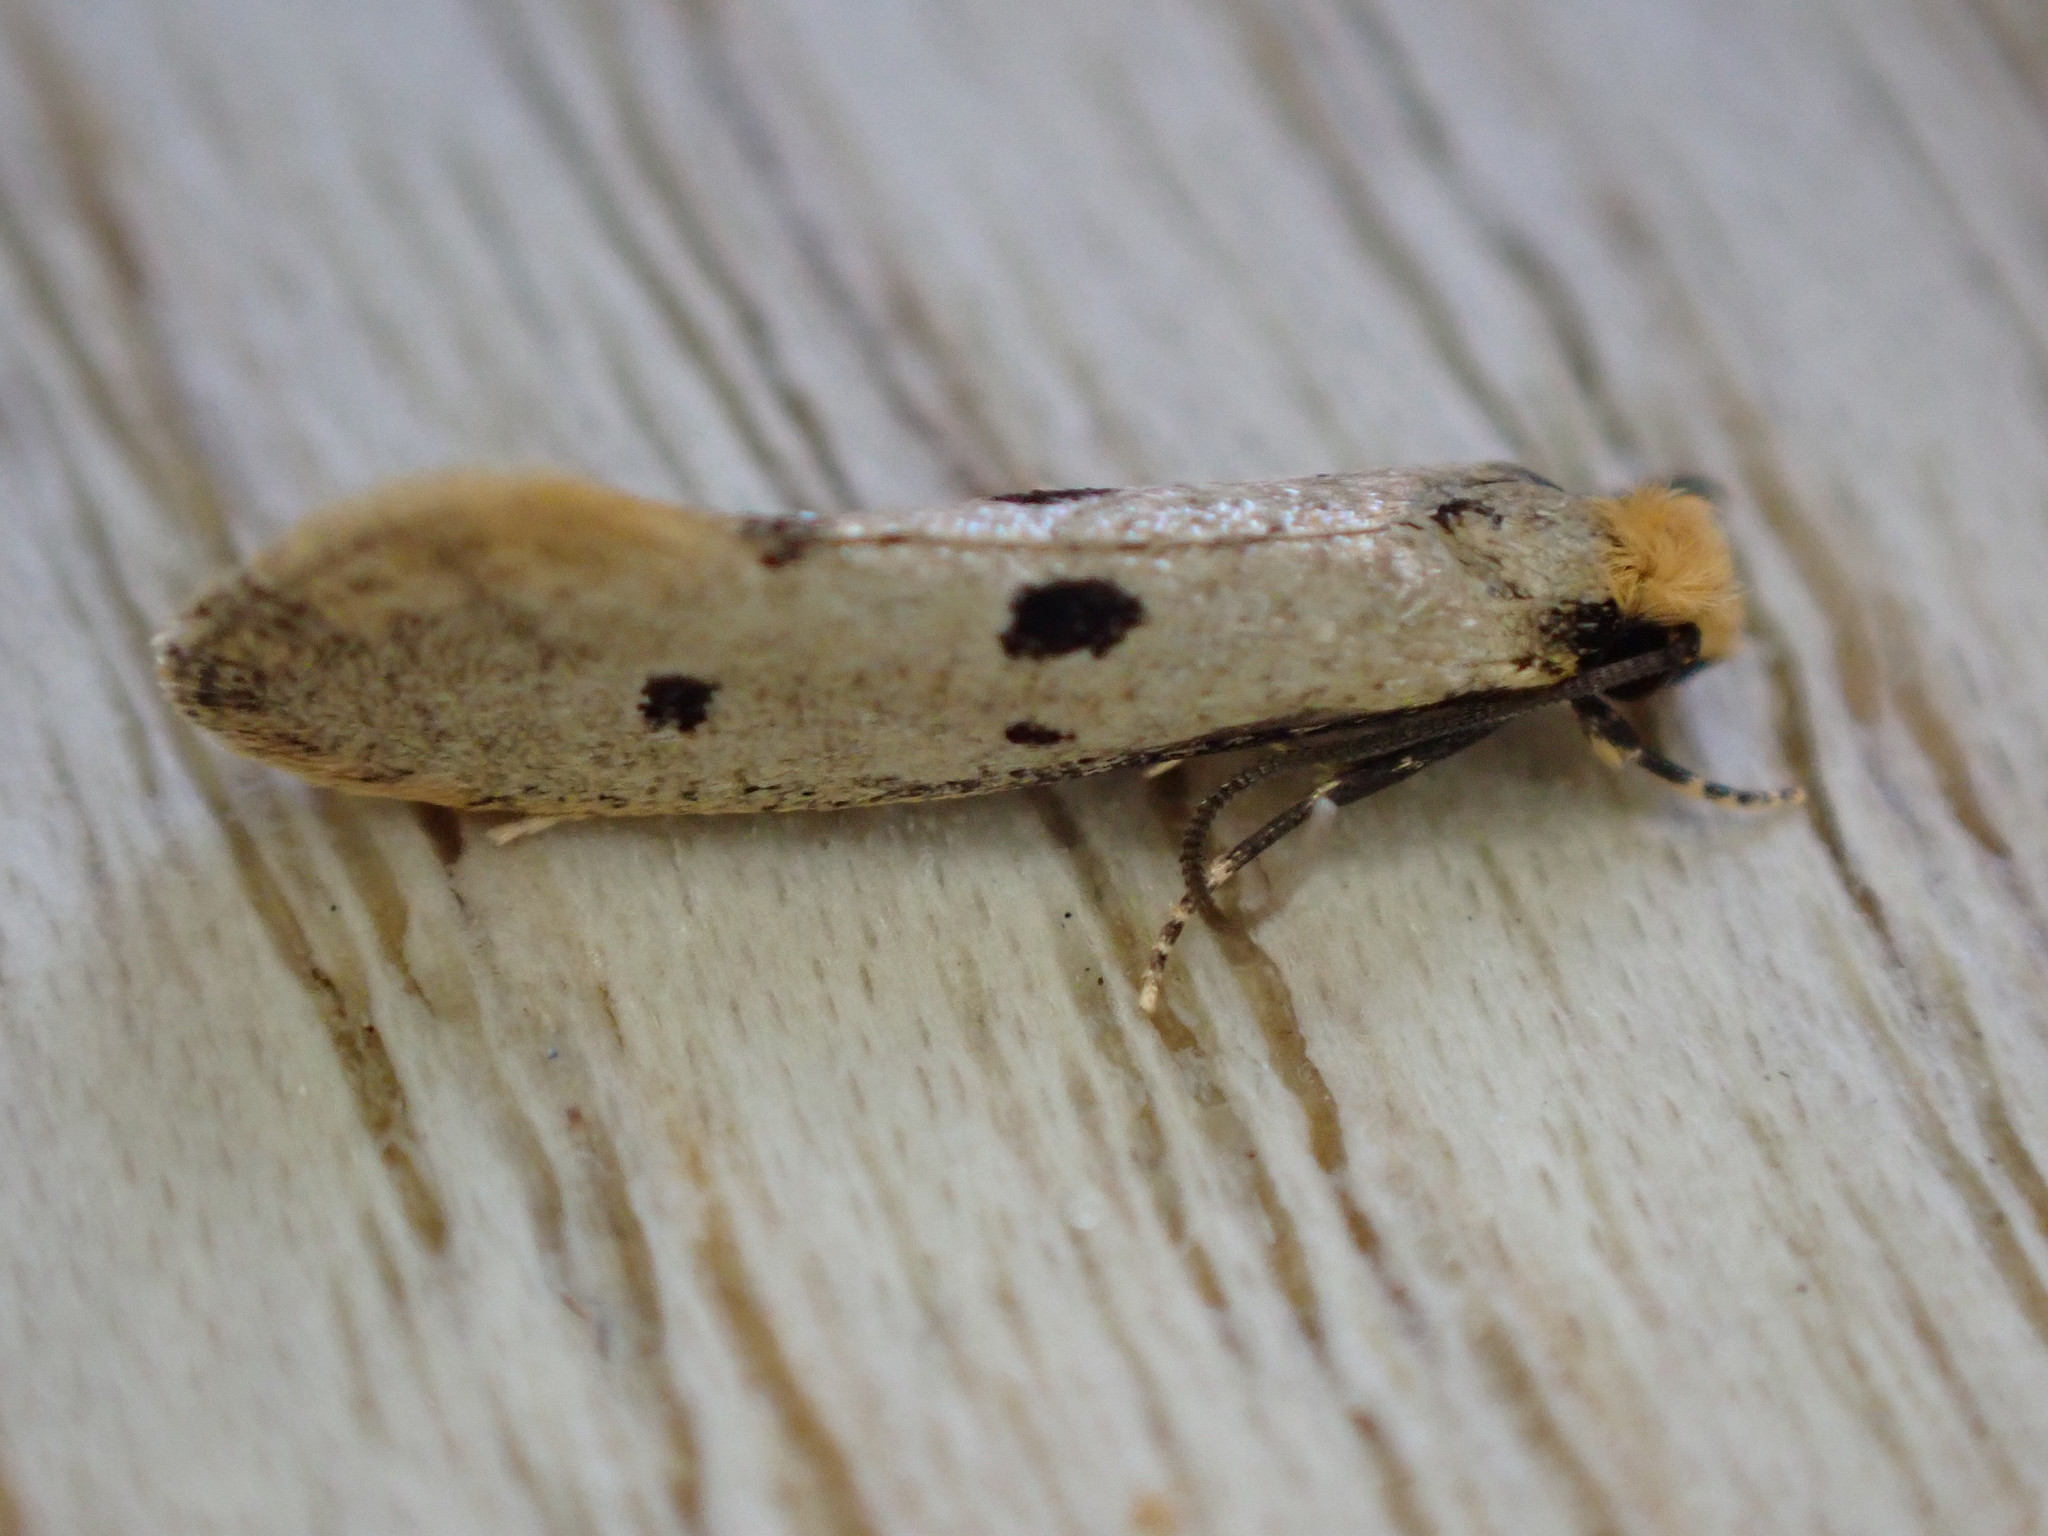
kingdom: Animalia
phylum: Arthropoda
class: Insecta
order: Lepidoptera
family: Tineidae
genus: Tinea
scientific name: Tinea trinotella
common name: Bird's-nest moth
